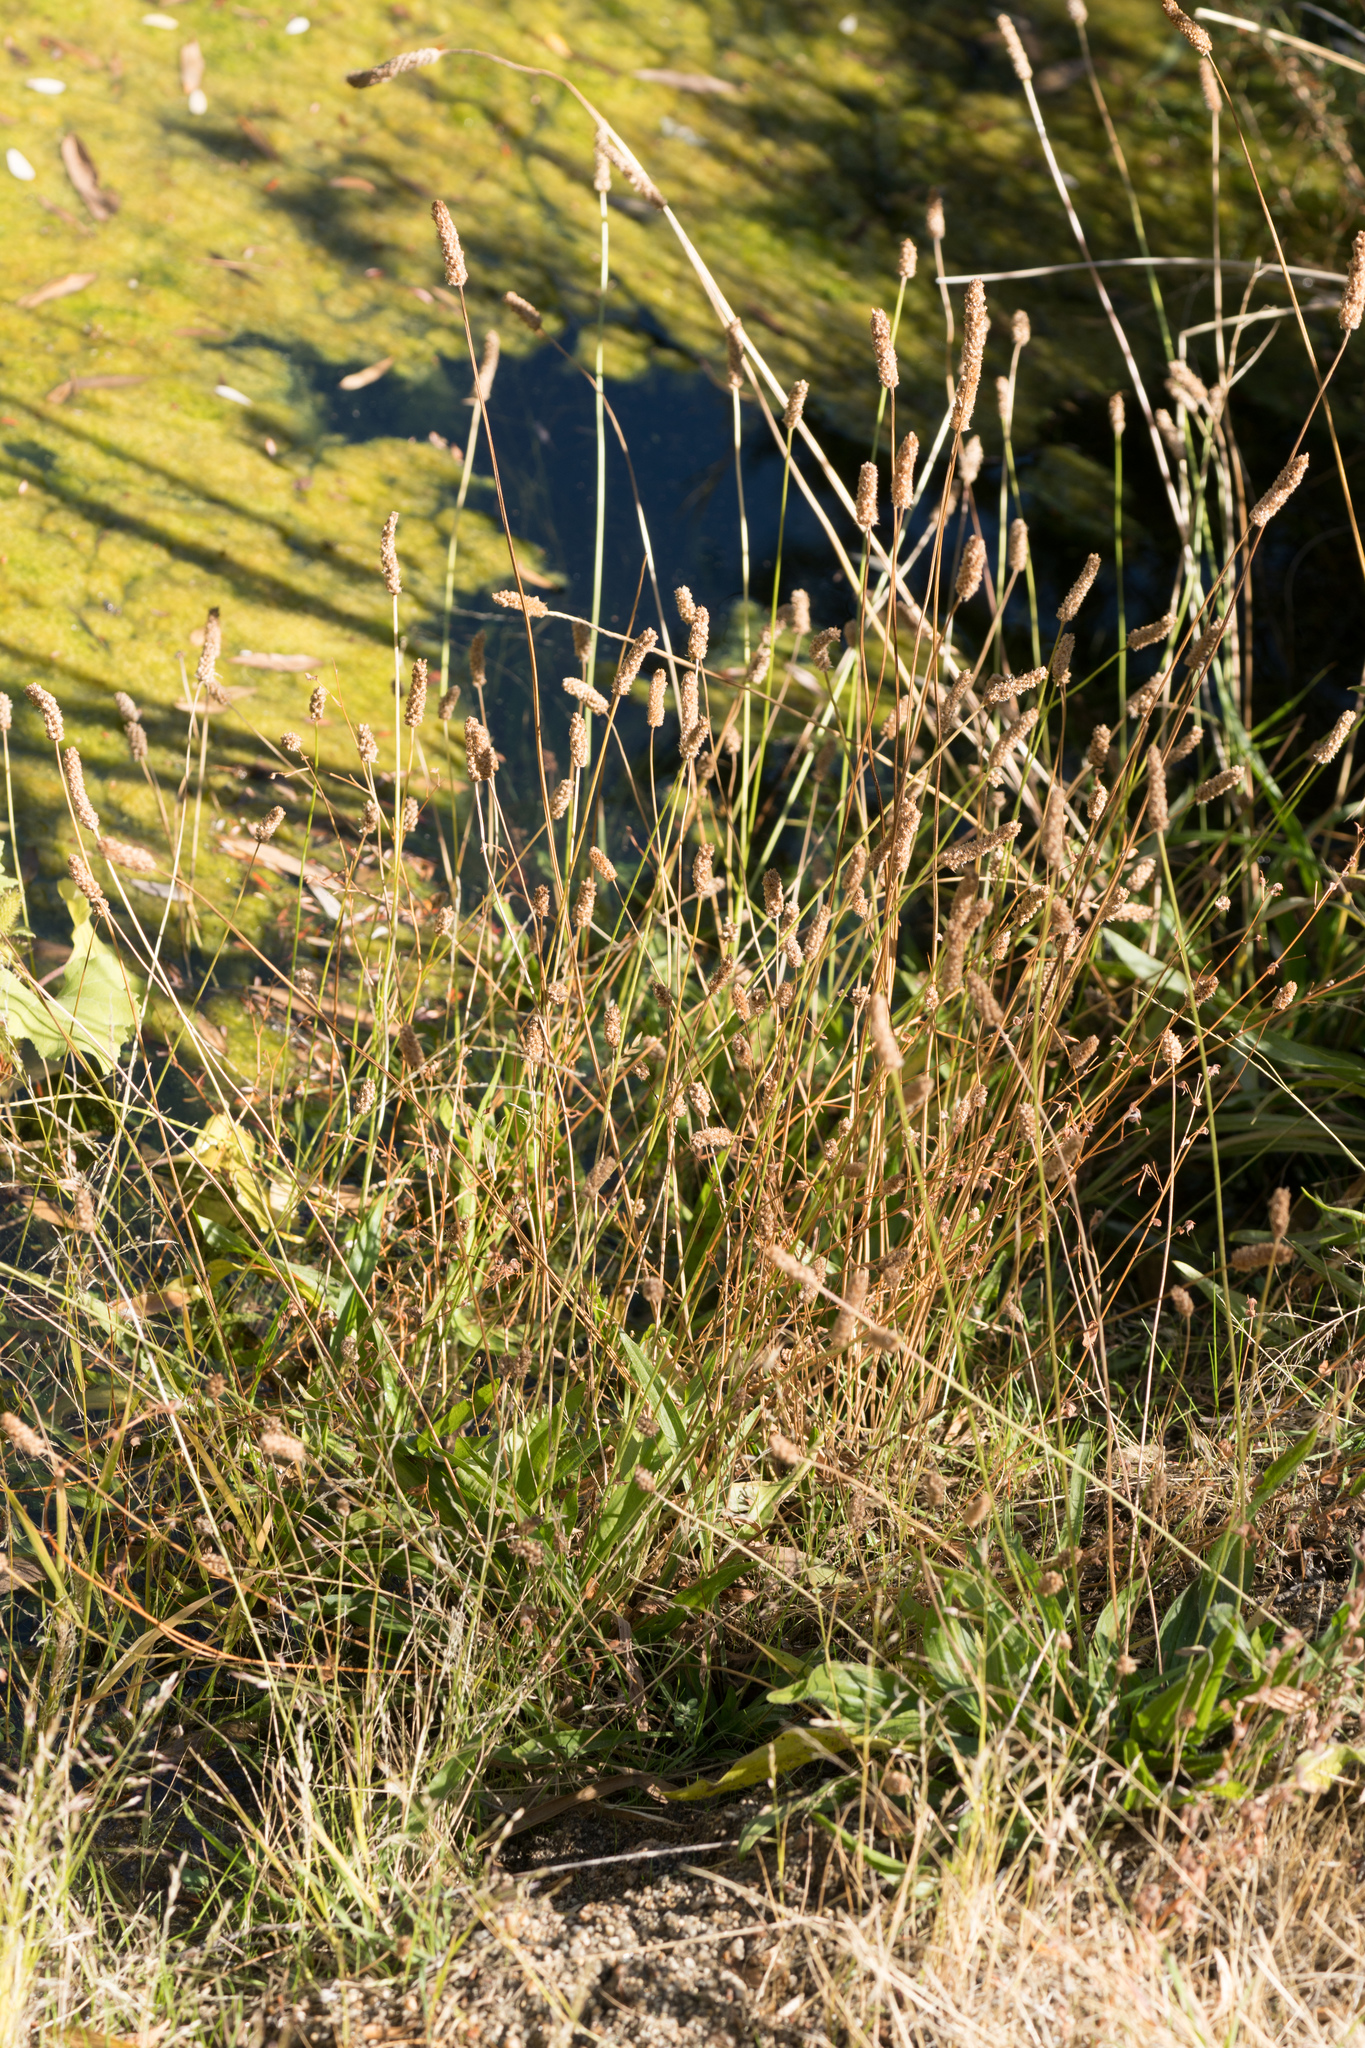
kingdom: Plantae
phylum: Tracheophyta
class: Magnoliopsida
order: Lamiales
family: Plantaginaceae
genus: Plantago
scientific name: Plantago lanceolata
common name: Ribwort plantain
